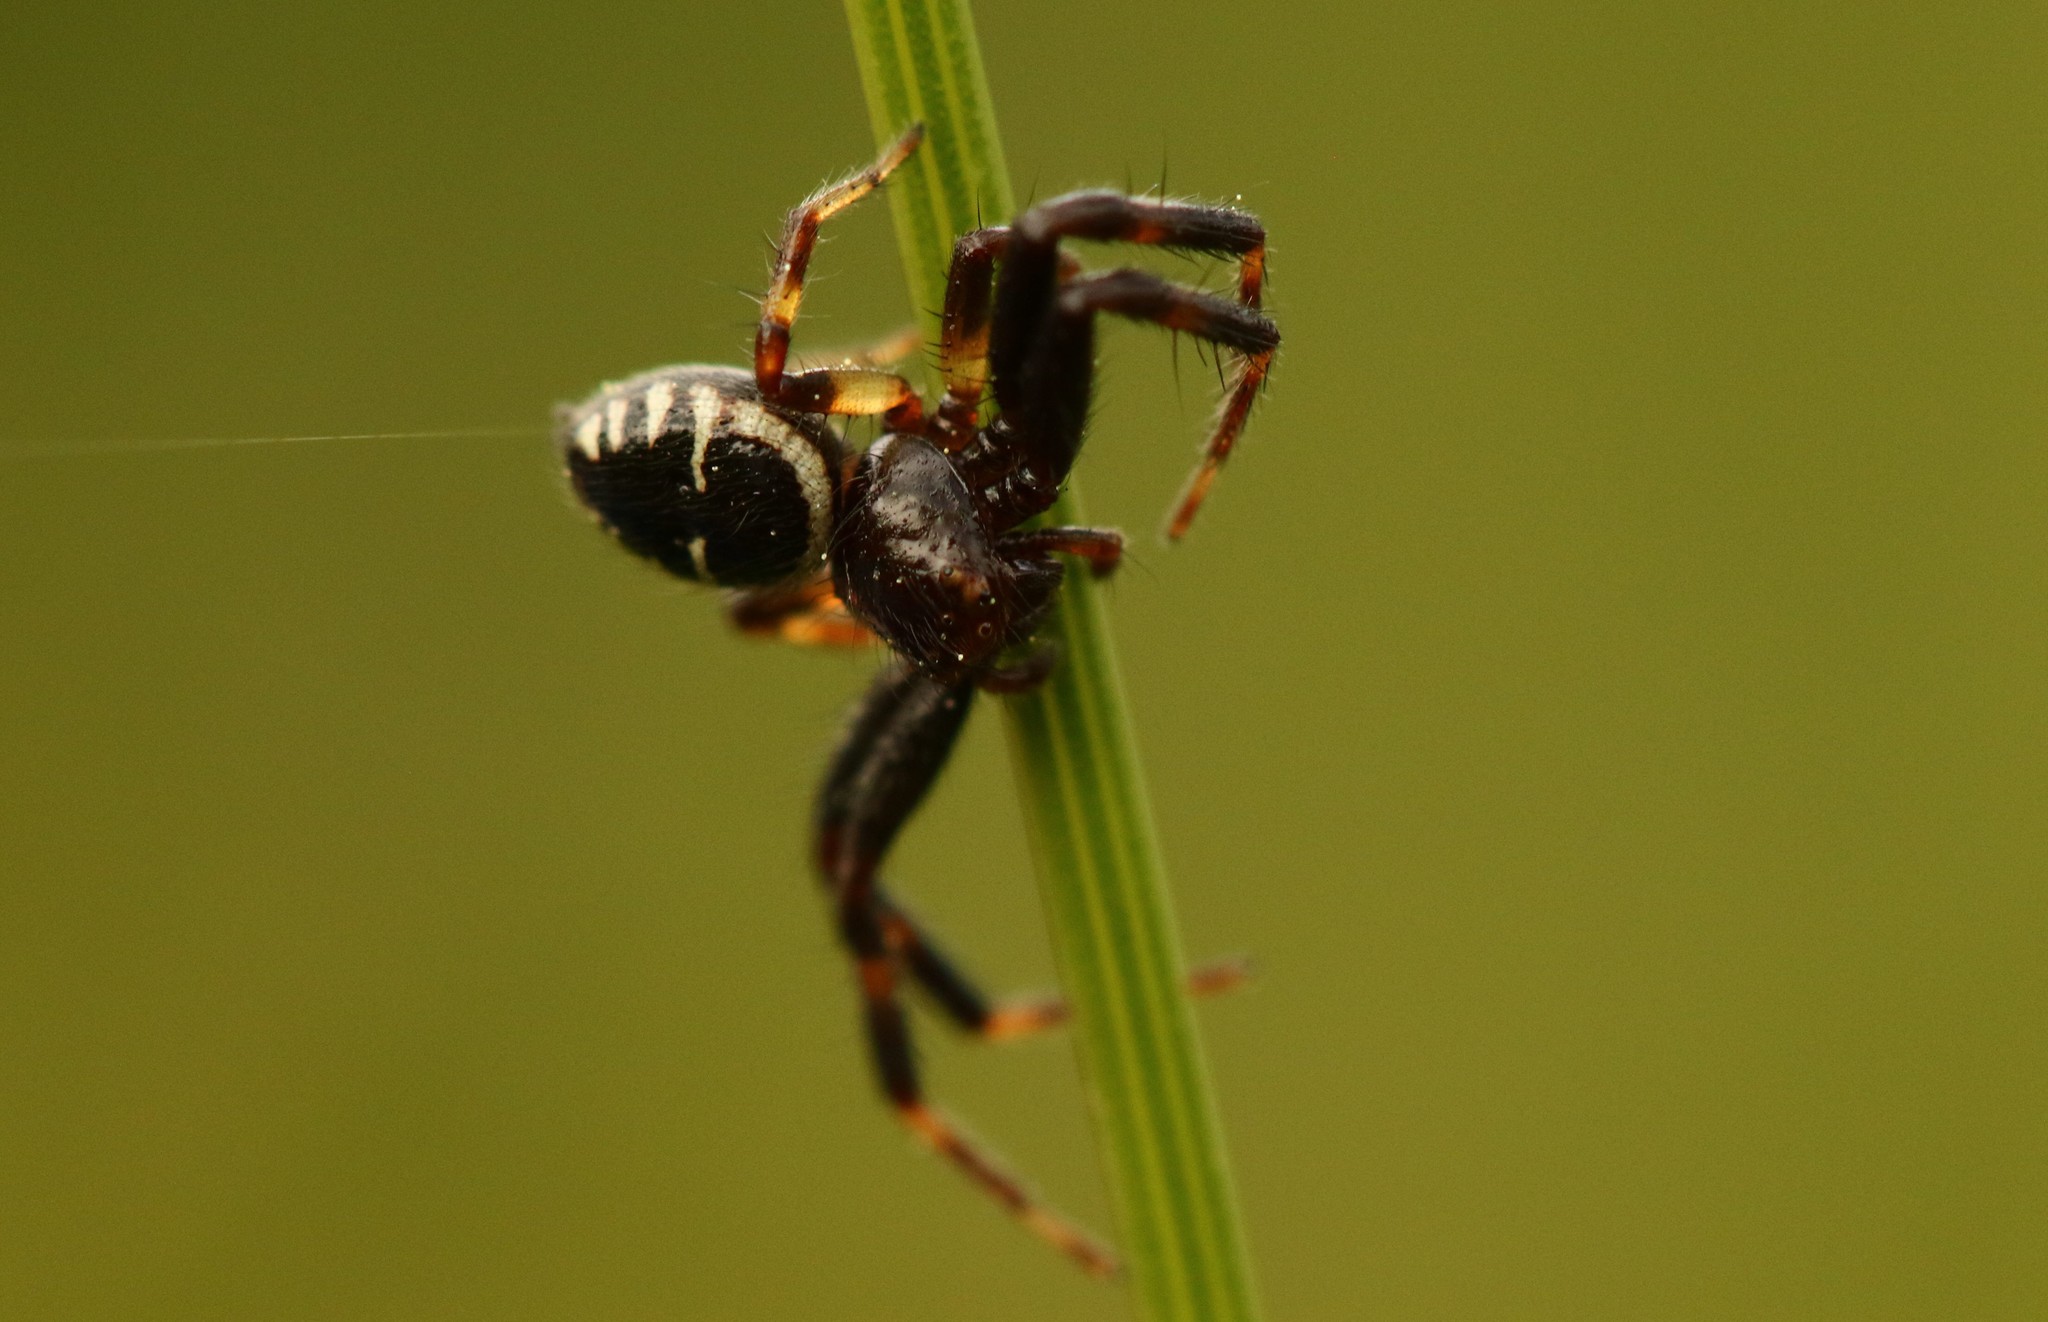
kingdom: Animalia
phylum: Arthropoda
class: Arachnida
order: Araneae
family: Thomisidae
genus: Synema
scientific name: Synema globosum
